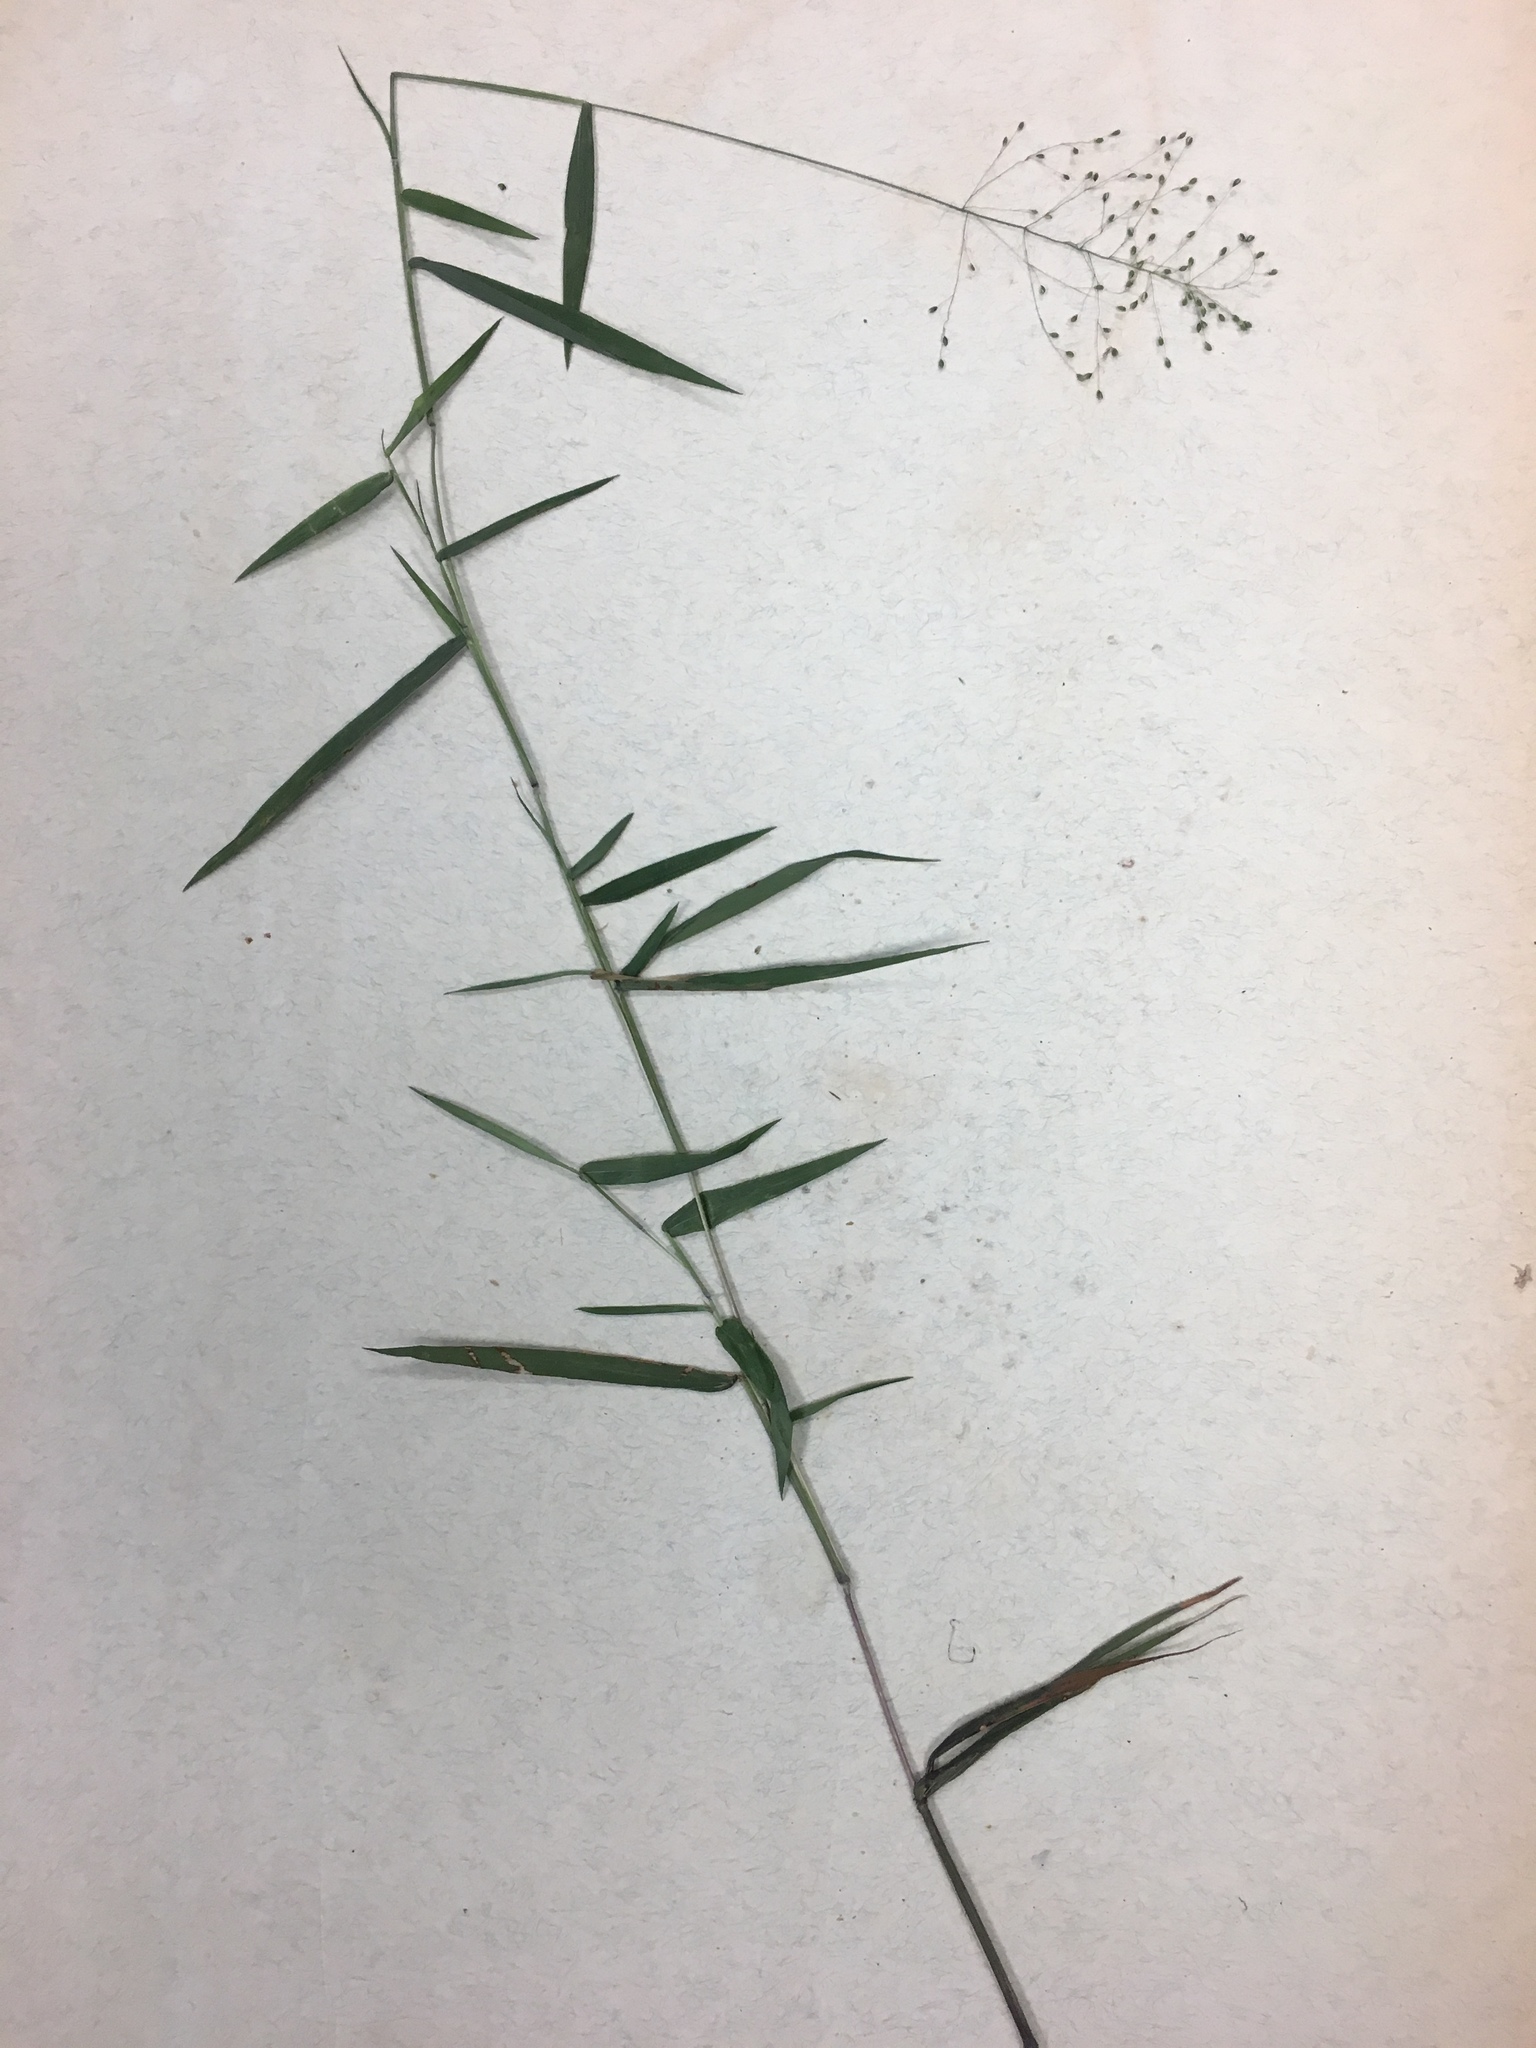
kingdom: Plantae
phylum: Tracheophyta
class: Liliopsida
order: Poales
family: Poaceae
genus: Dichanthelium
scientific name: Dichanthelium sphaerocarpon
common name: Round-fruited panicgrass
